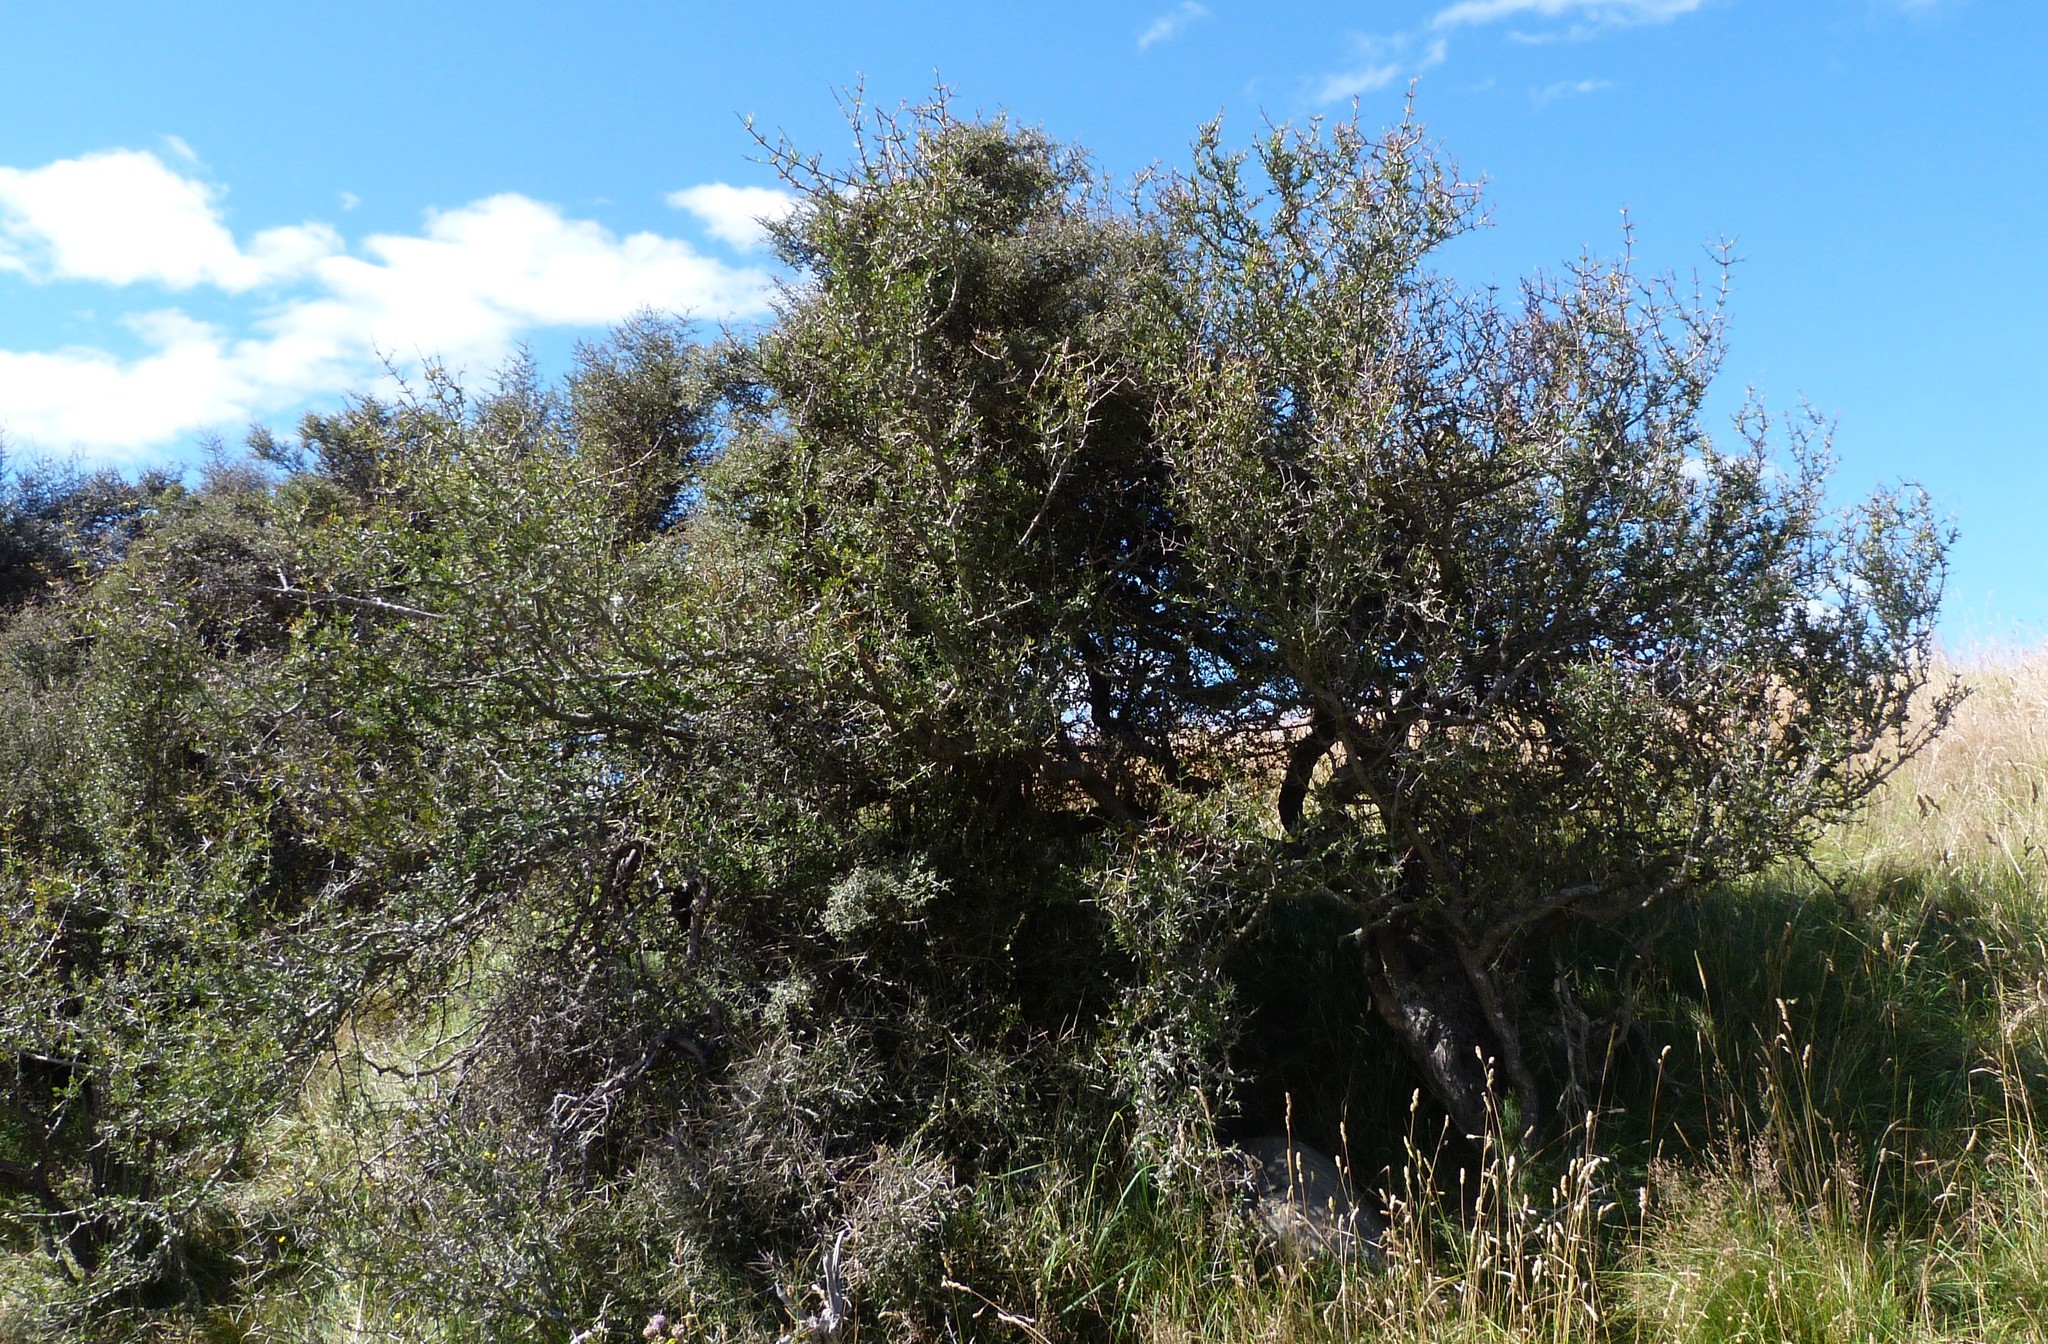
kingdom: Plantae
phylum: Tracheophyta
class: Magnoliopsida
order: Rosales
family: Rhamnaceae
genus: Discaria
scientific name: Discaria toumatou
